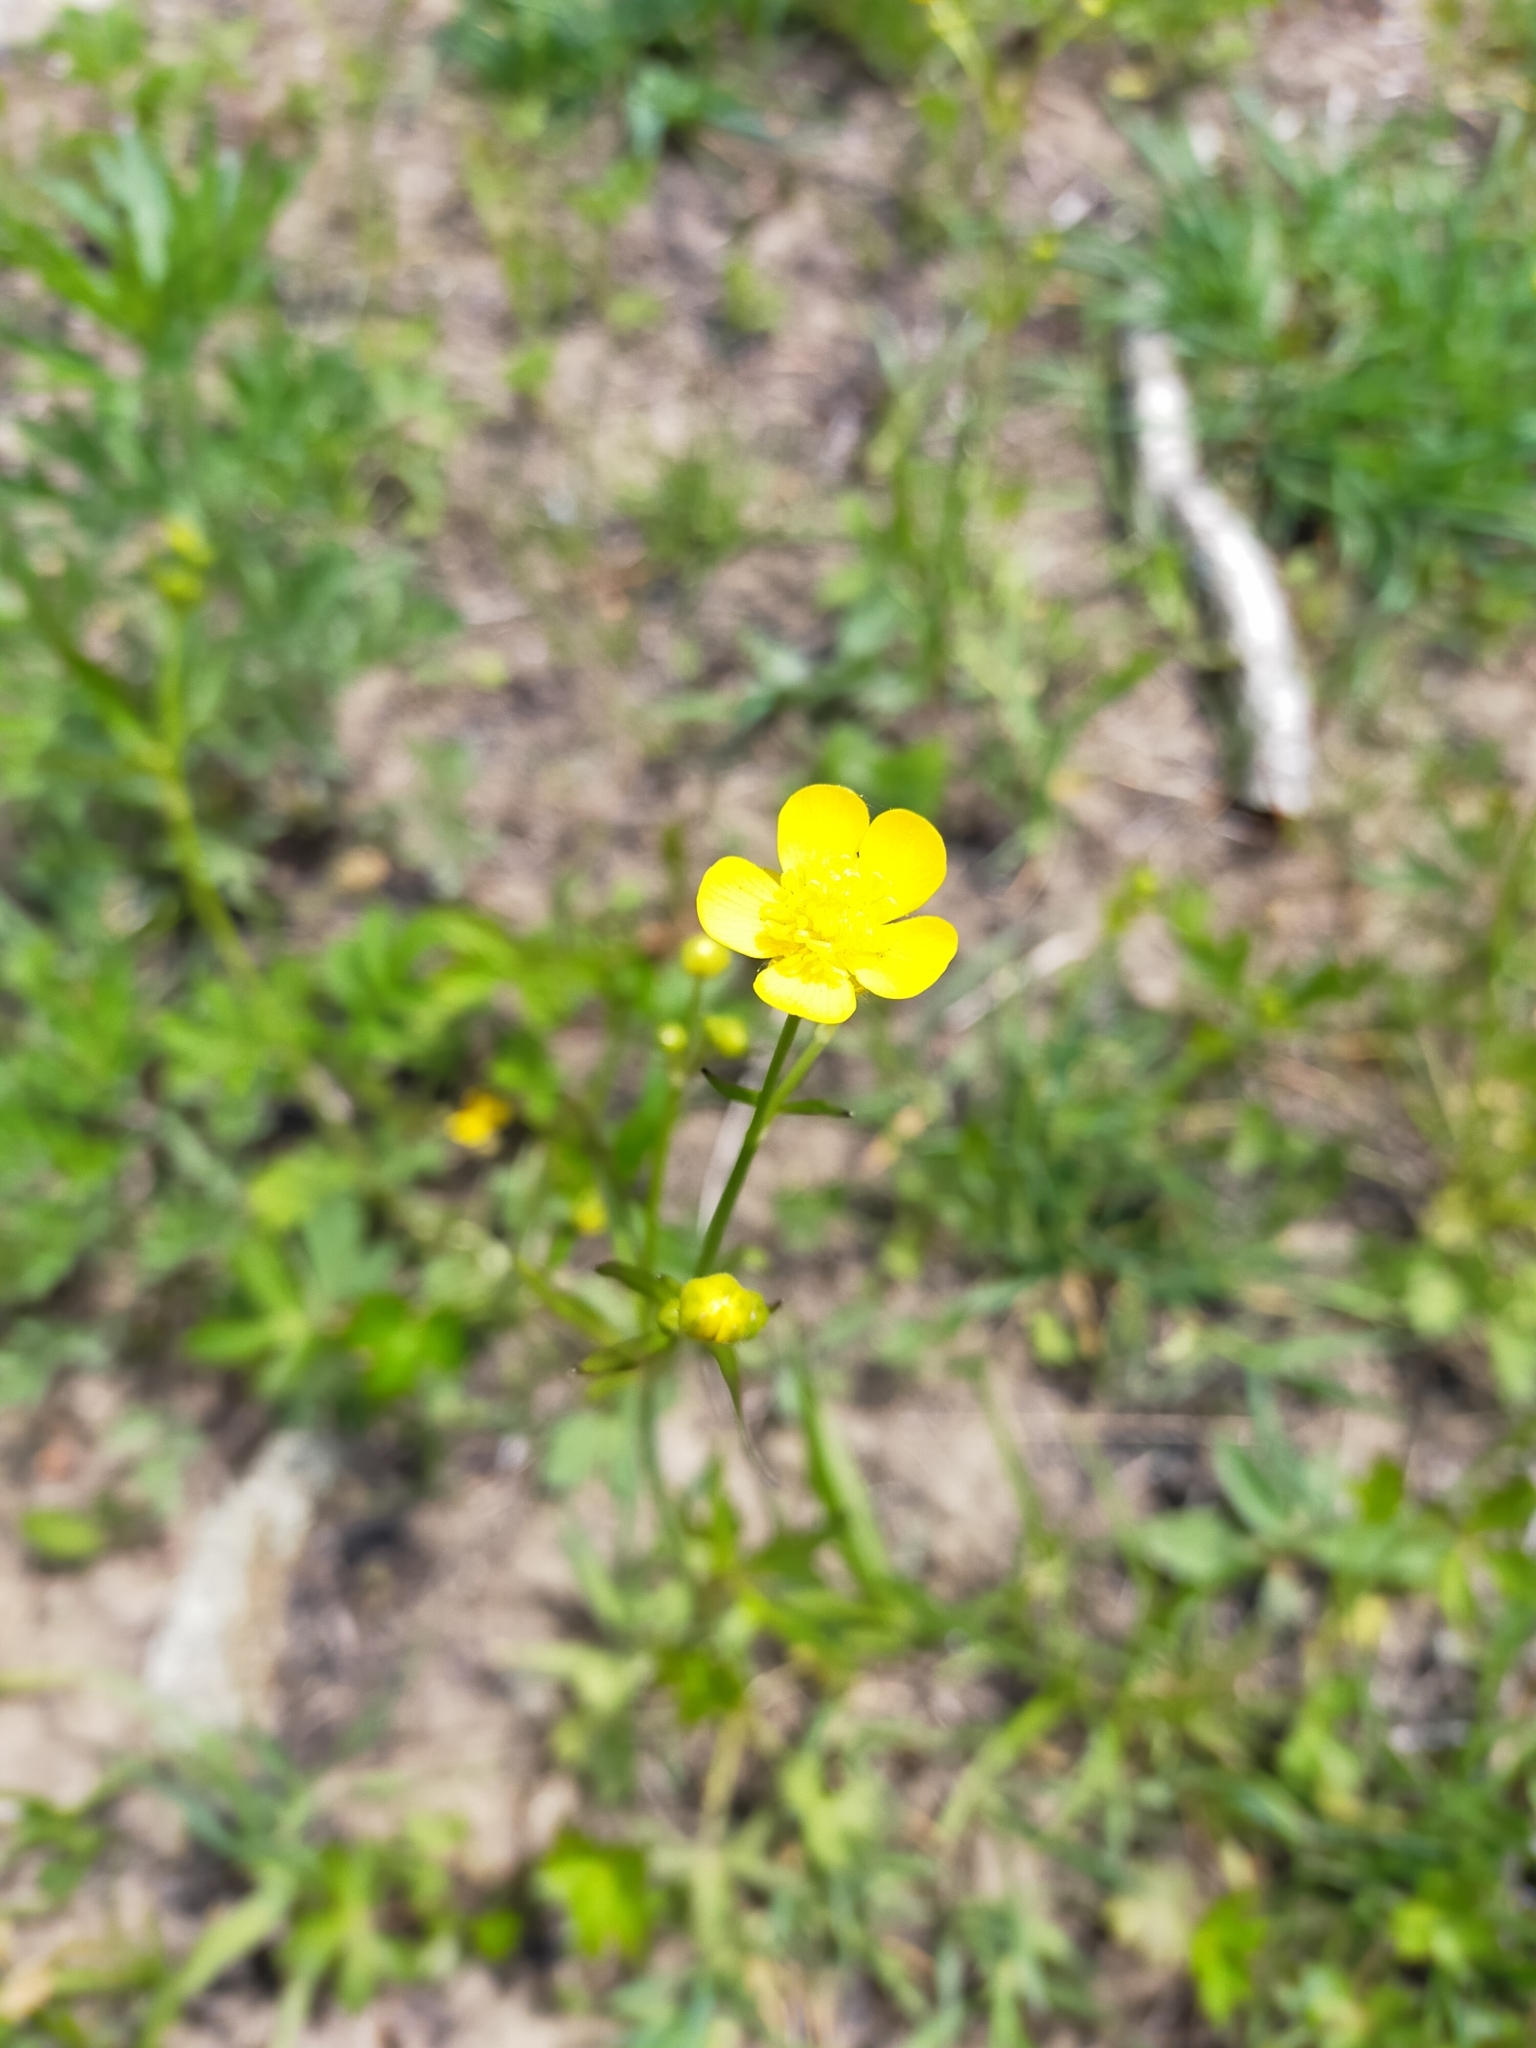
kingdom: Plantae
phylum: Tracheophyta
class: Magnoliopsida
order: Ranunculales
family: Ranunculaceae
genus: Ranunculus
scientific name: Ranunculus japonicus
